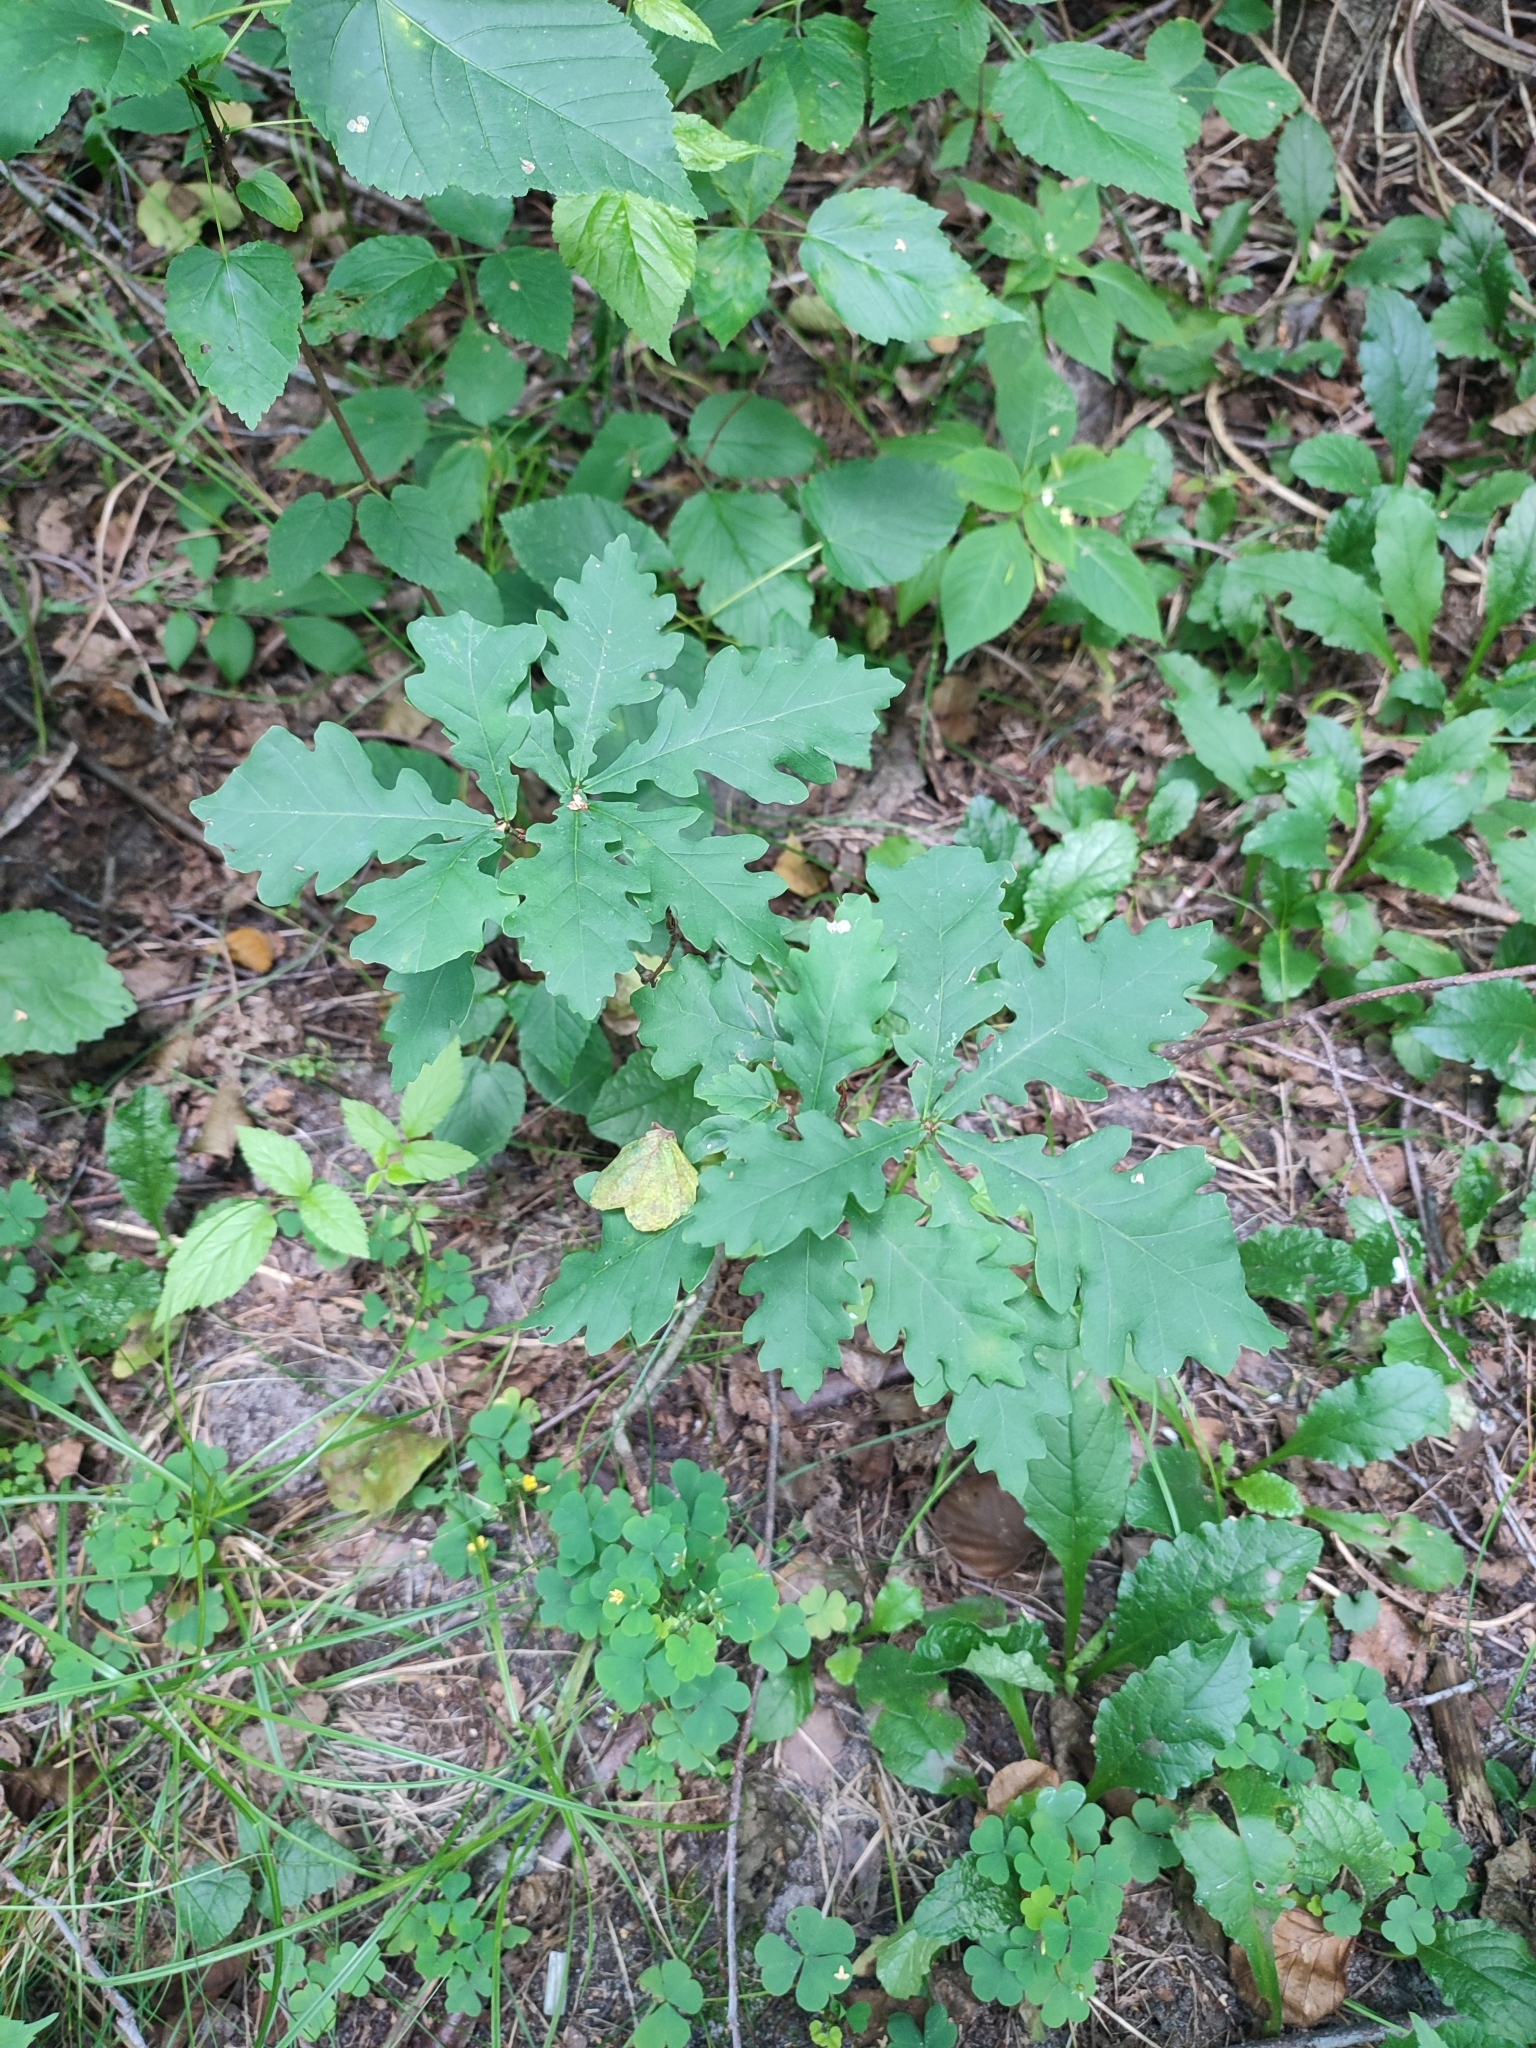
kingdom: Plantae
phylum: Tracheophyta
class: Magnoliopsida
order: Fagales
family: Fagaceae
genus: Quercus
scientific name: Quercus robur
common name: Pedunculate oak
